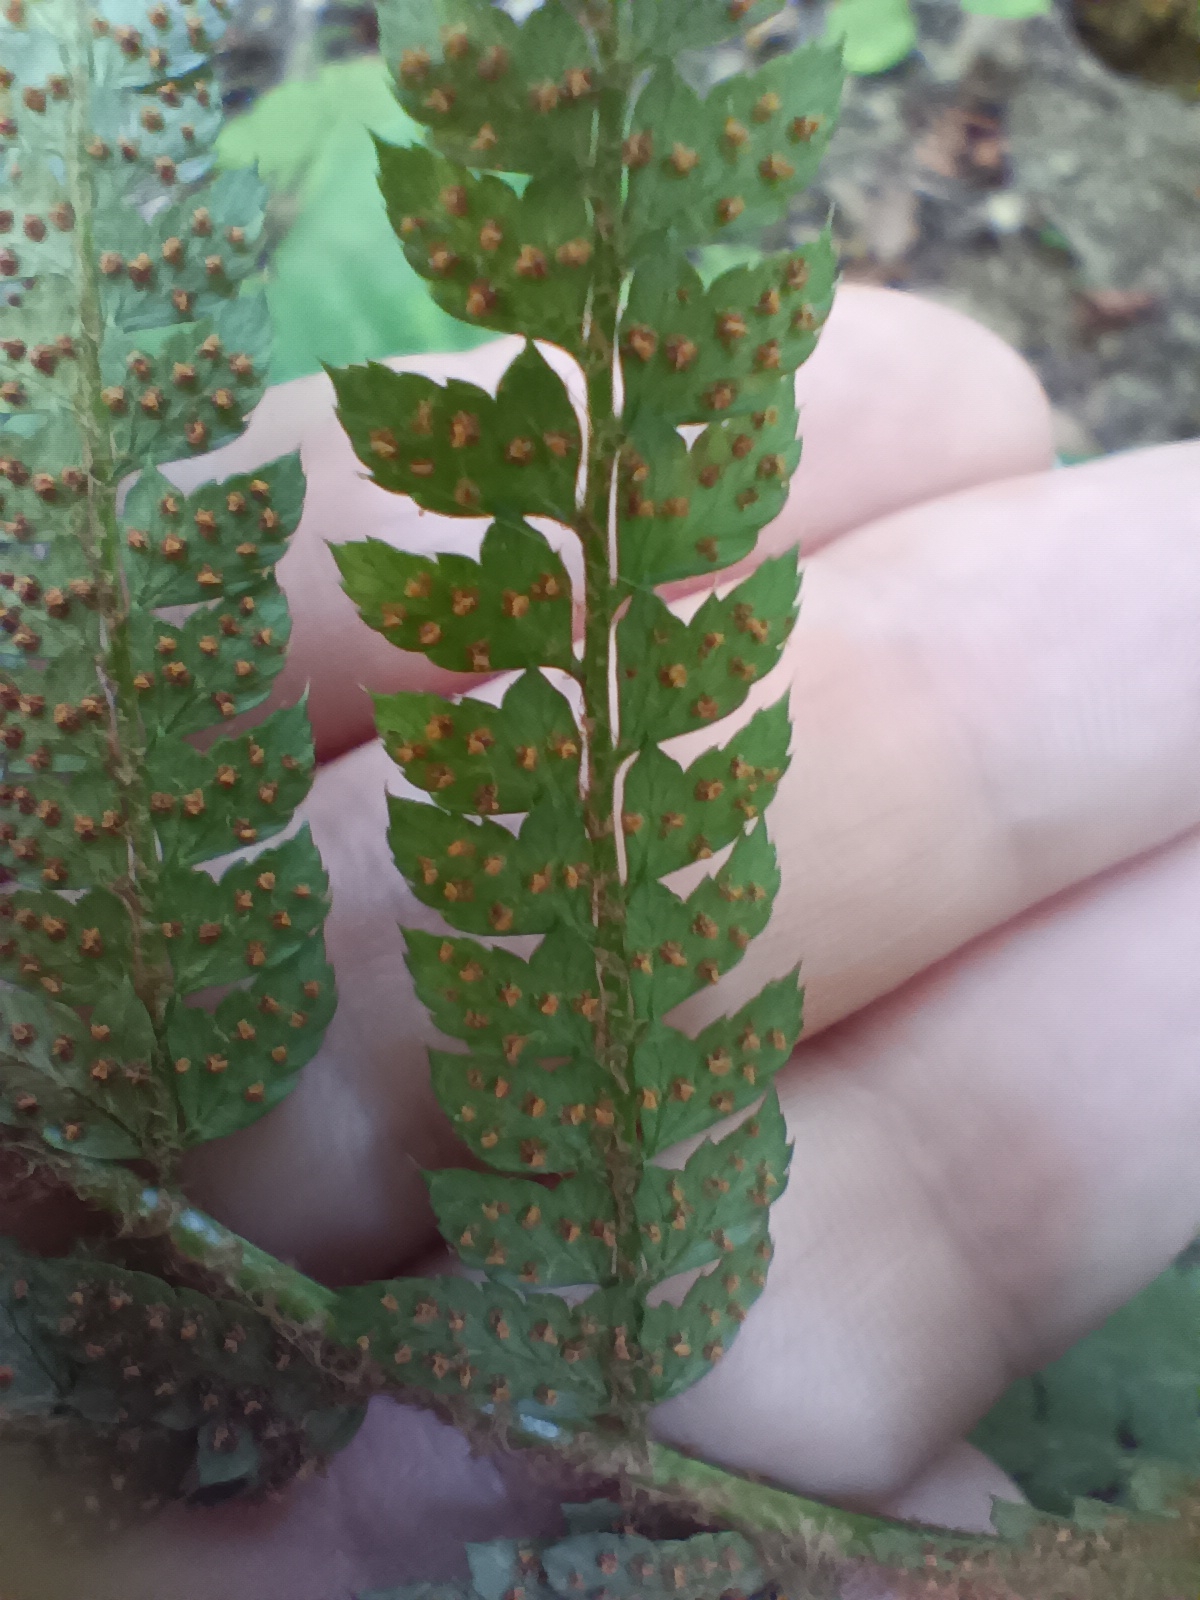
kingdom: Plantae
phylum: Tracheophyta
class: Polypodiopsida
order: Polypodiales
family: Dryopteridaceae
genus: Polystichum
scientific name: Polystichum setiferum
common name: Soft shield-fern
